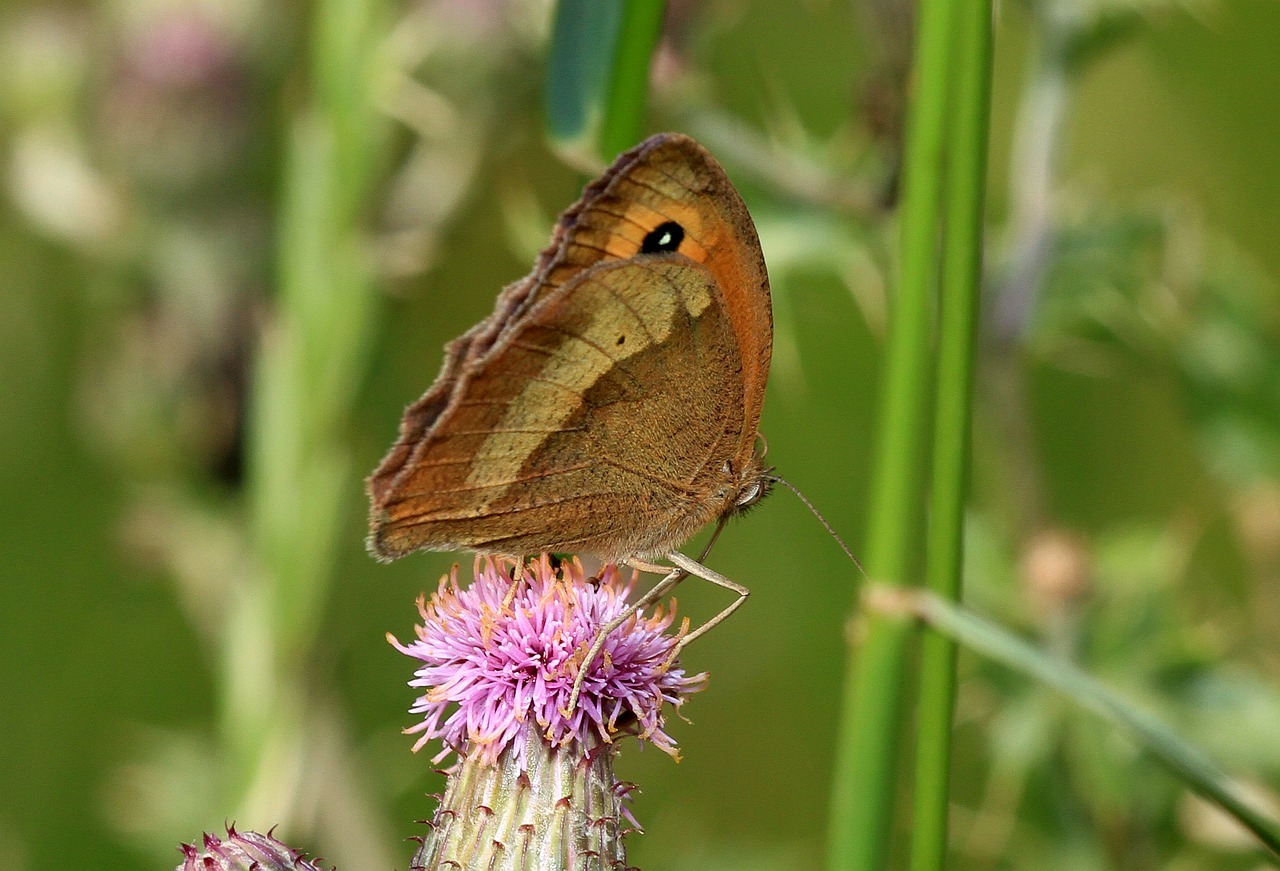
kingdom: Animalia
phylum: Arthropoda
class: Insecta
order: Lepidoptera
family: Nymphalidae
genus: Maniola
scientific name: Maniola jurtina
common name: Meadow brown
